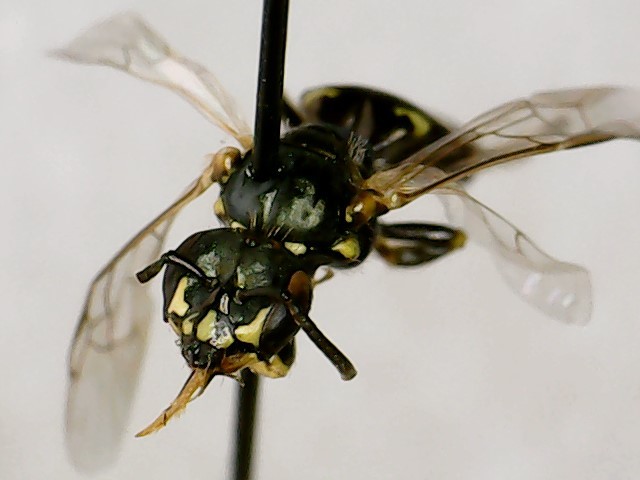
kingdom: Animalia
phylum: Arthropoda
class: Insecta
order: Hymenoptera
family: Andrenidae
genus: Perdita
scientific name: Perdita octomaculata
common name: Eight-spotted miner bee
